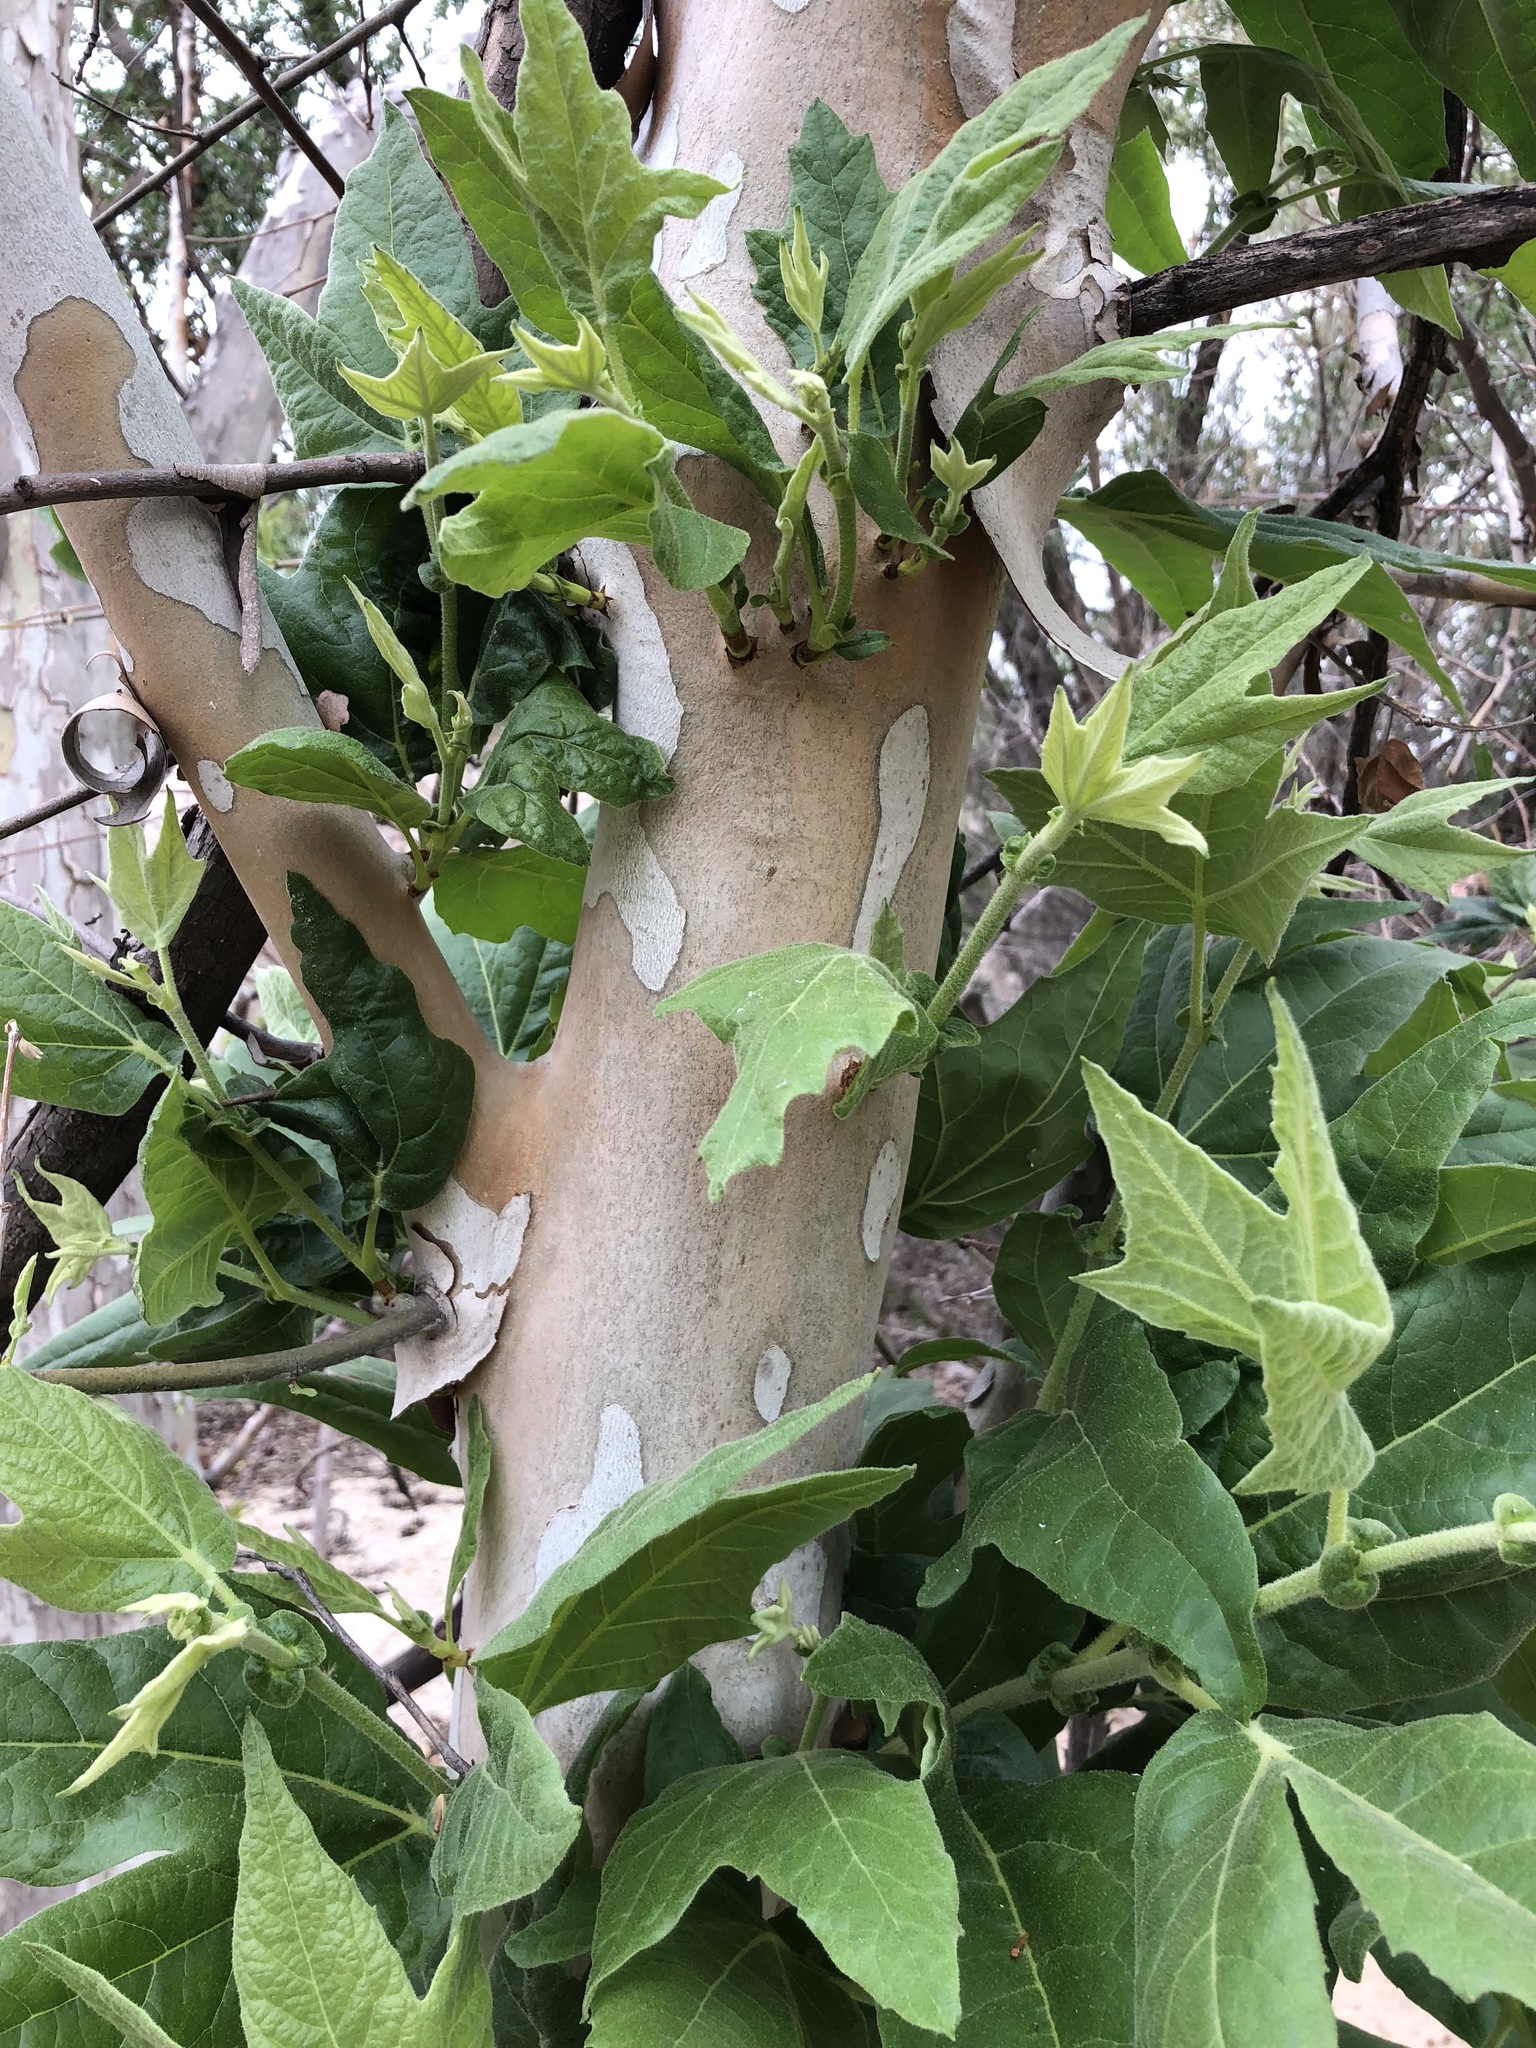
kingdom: Plantae
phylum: Tracheophyta
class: Magnoliopsida
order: Proteales
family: Platanaceae
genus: Platanus
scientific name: Platanus wrightii
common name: Arizona sycamore
